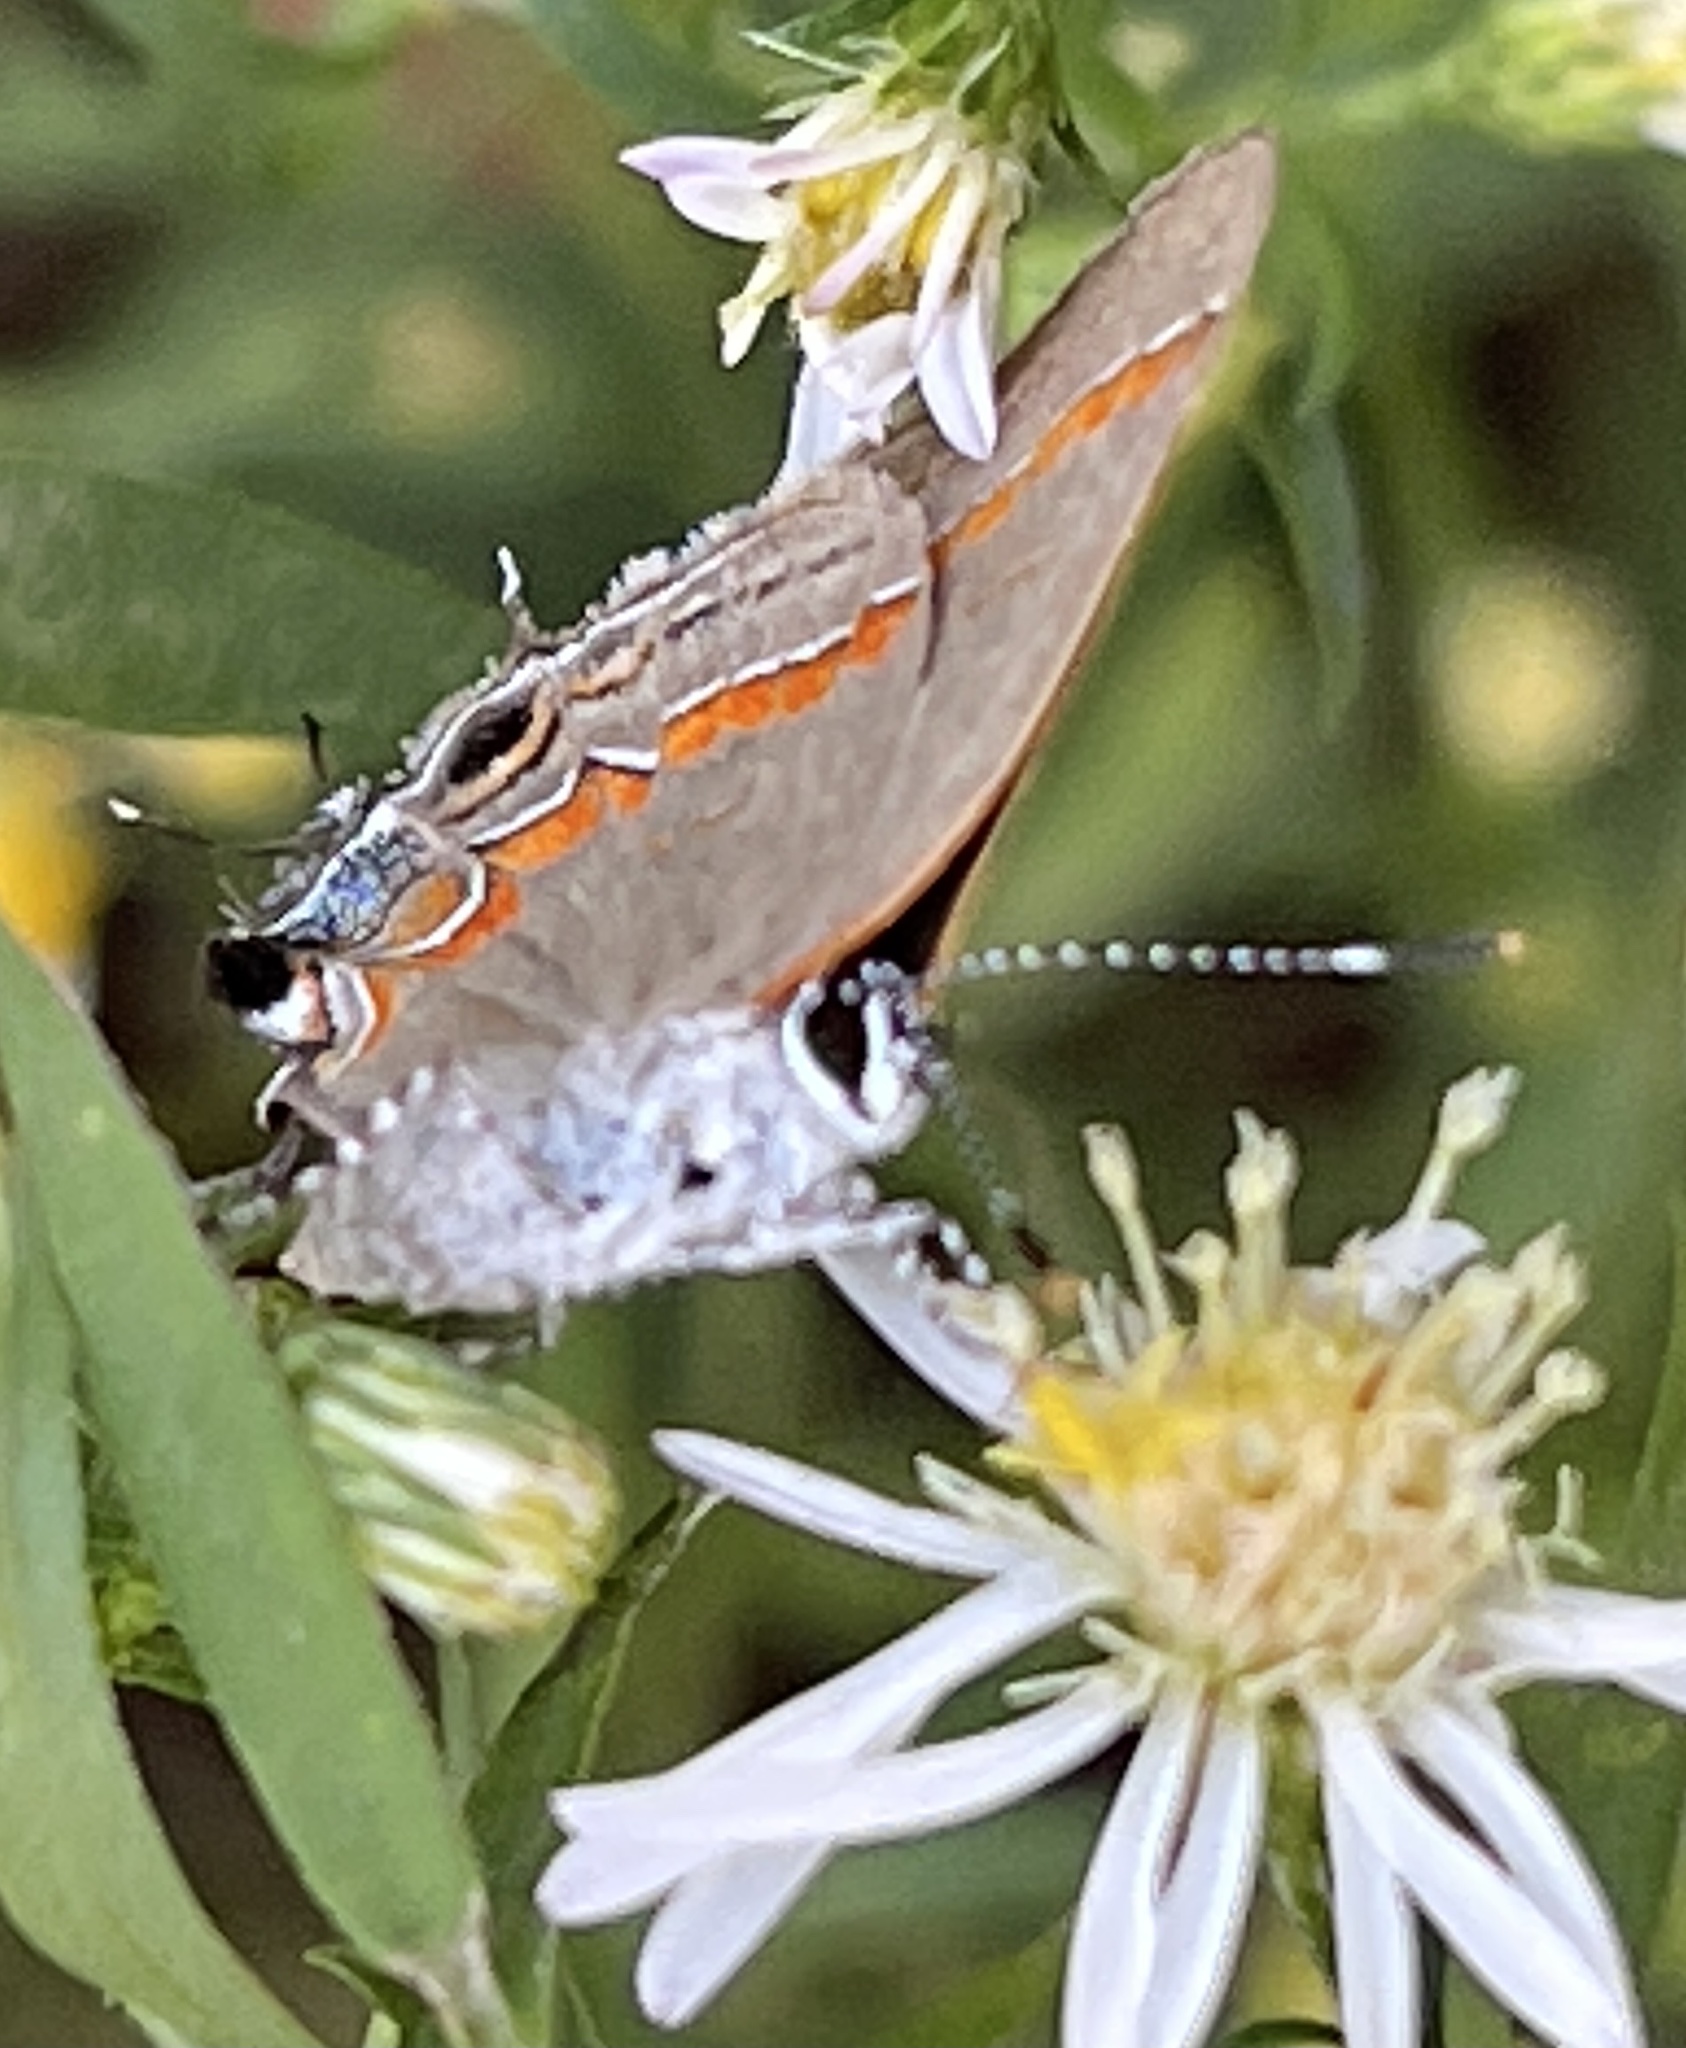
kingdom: Animalia
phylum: Arthropoda
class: Insecta
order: Lepidoptera
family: Lycaenidae
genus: Calycopis
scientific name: Calycopis cecrops
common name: Red-banded hairstreak
